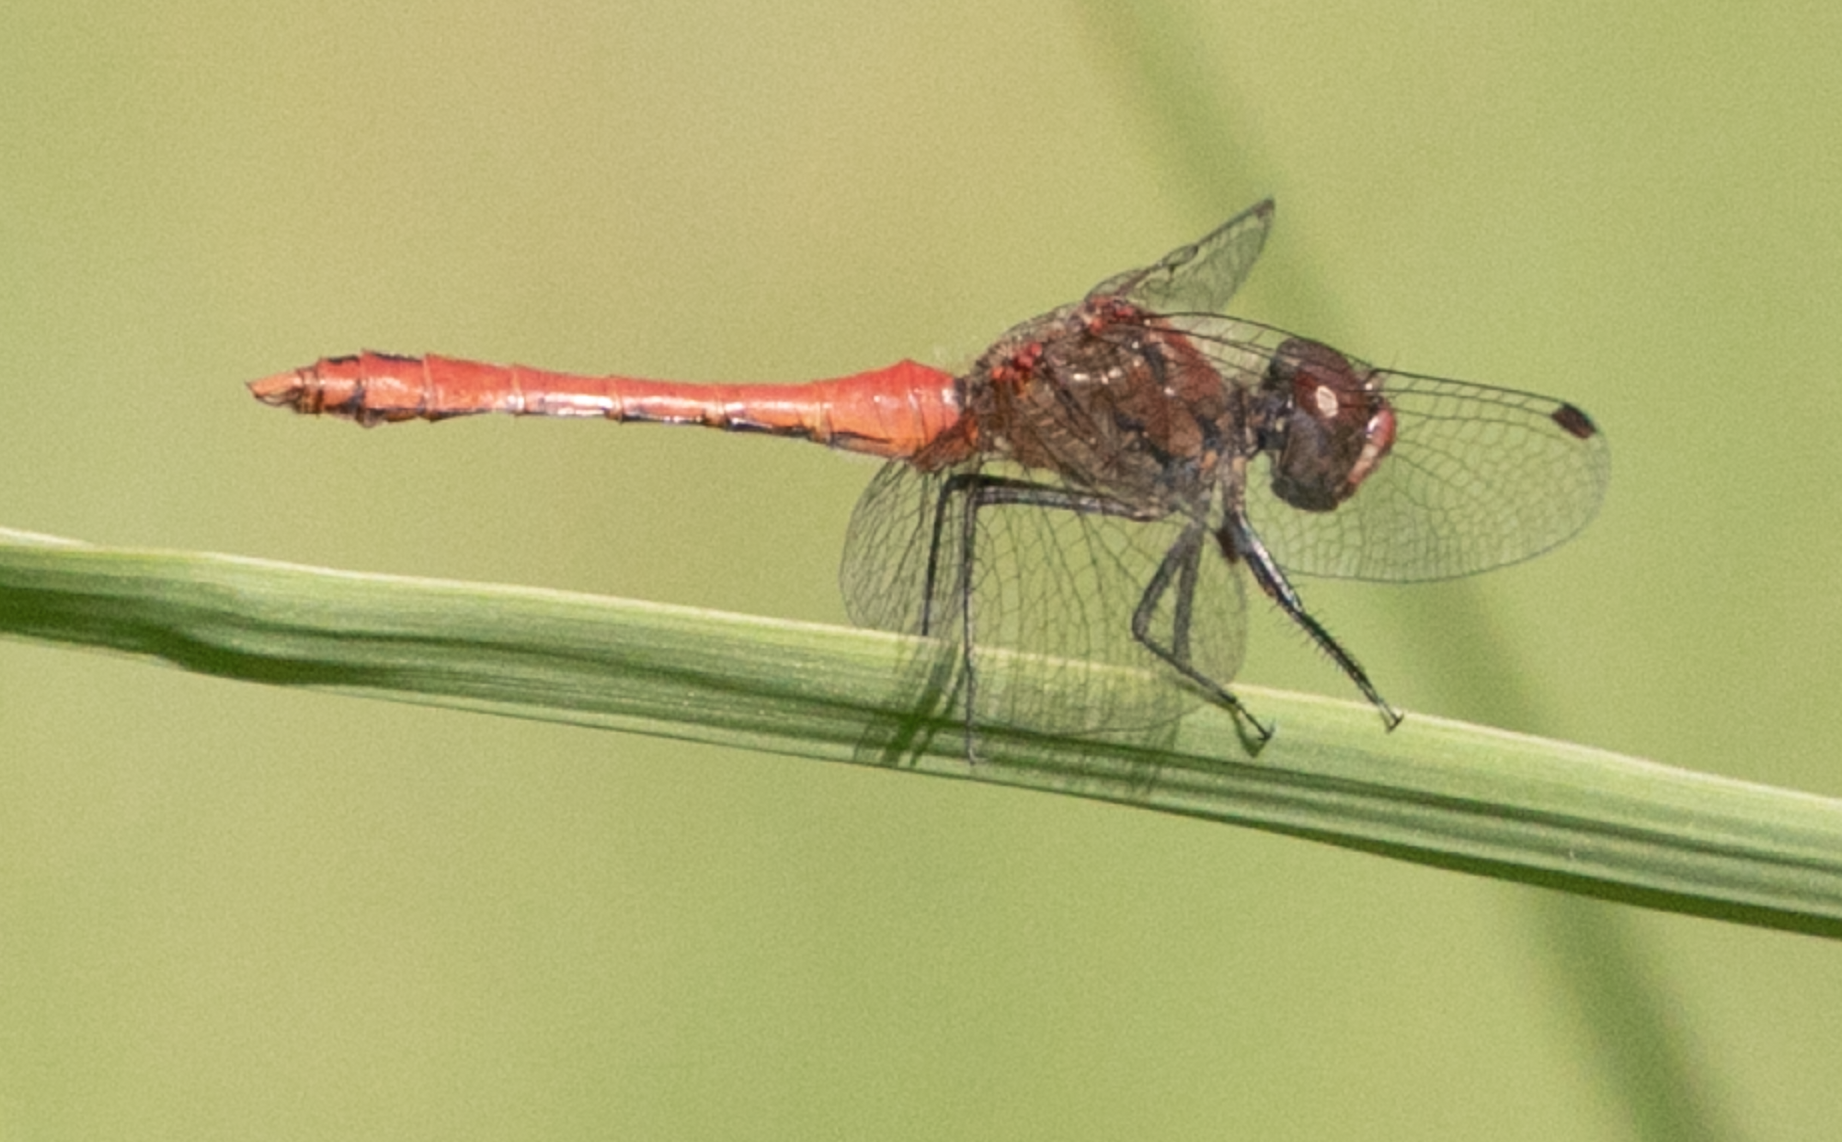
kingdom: Animalia
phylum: Arthropoda
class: Insecta
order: Odonata
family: Libellulidae
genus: Sympetrum
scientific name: Sympetrum sanguineum
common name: Ruddy darter
